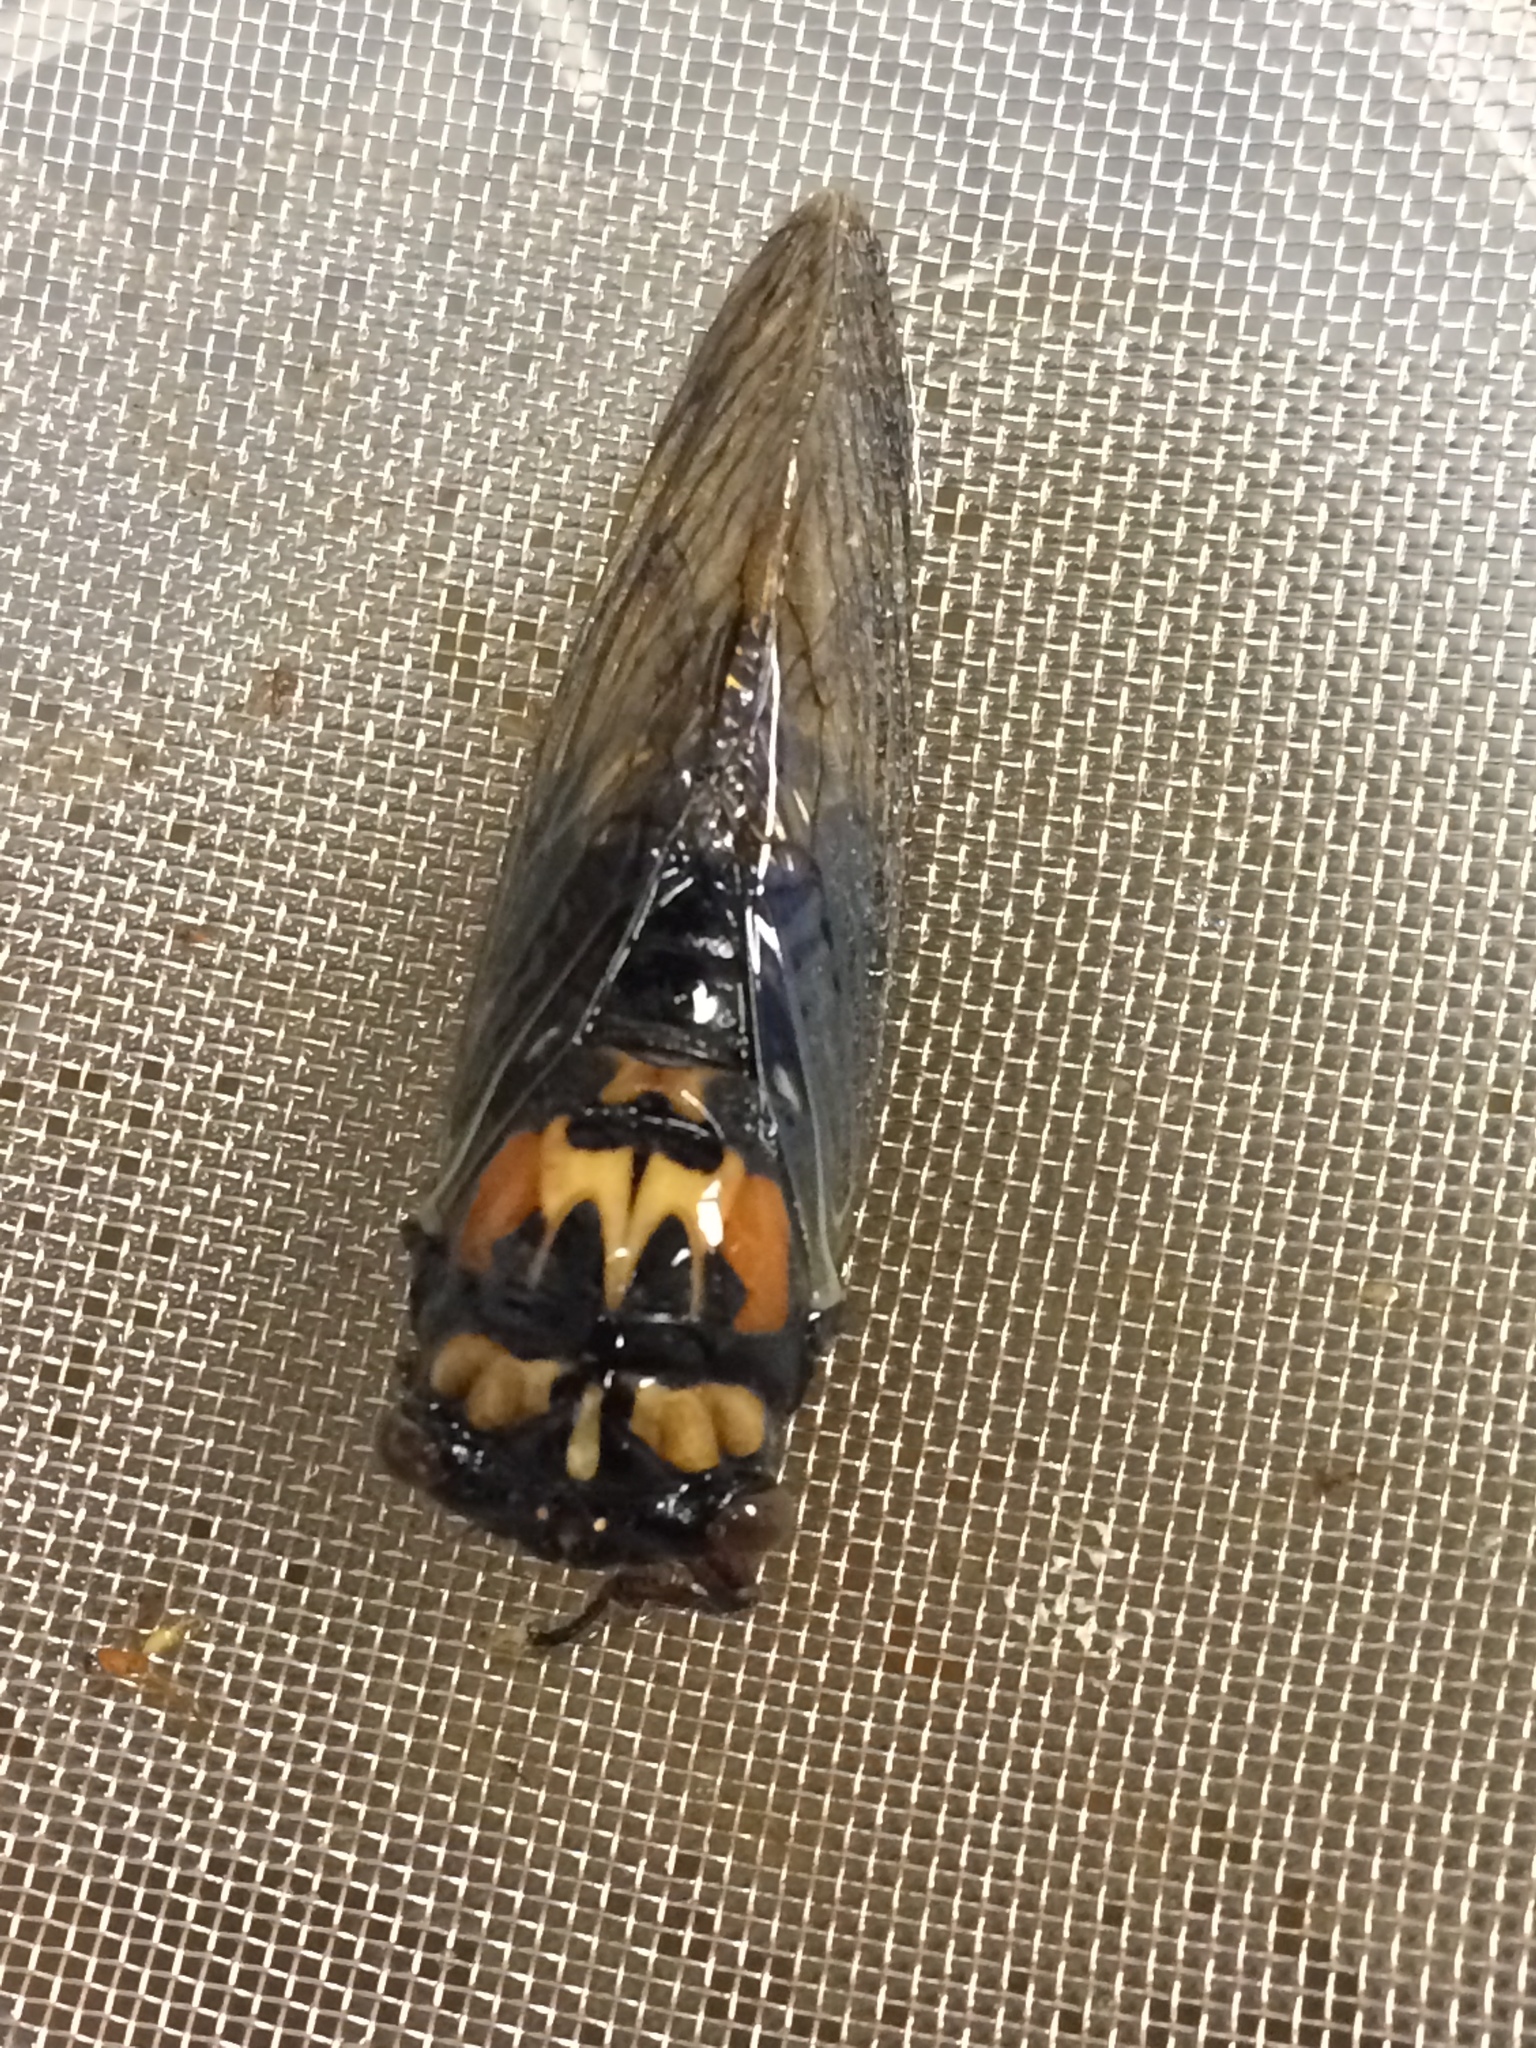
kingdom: Animalia
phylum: Arthropoda
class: Insecta
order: Hemiptera
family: Cicadidae
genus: Neotibicen
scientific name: Neotibicen lyricen
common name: Lyric cicada
